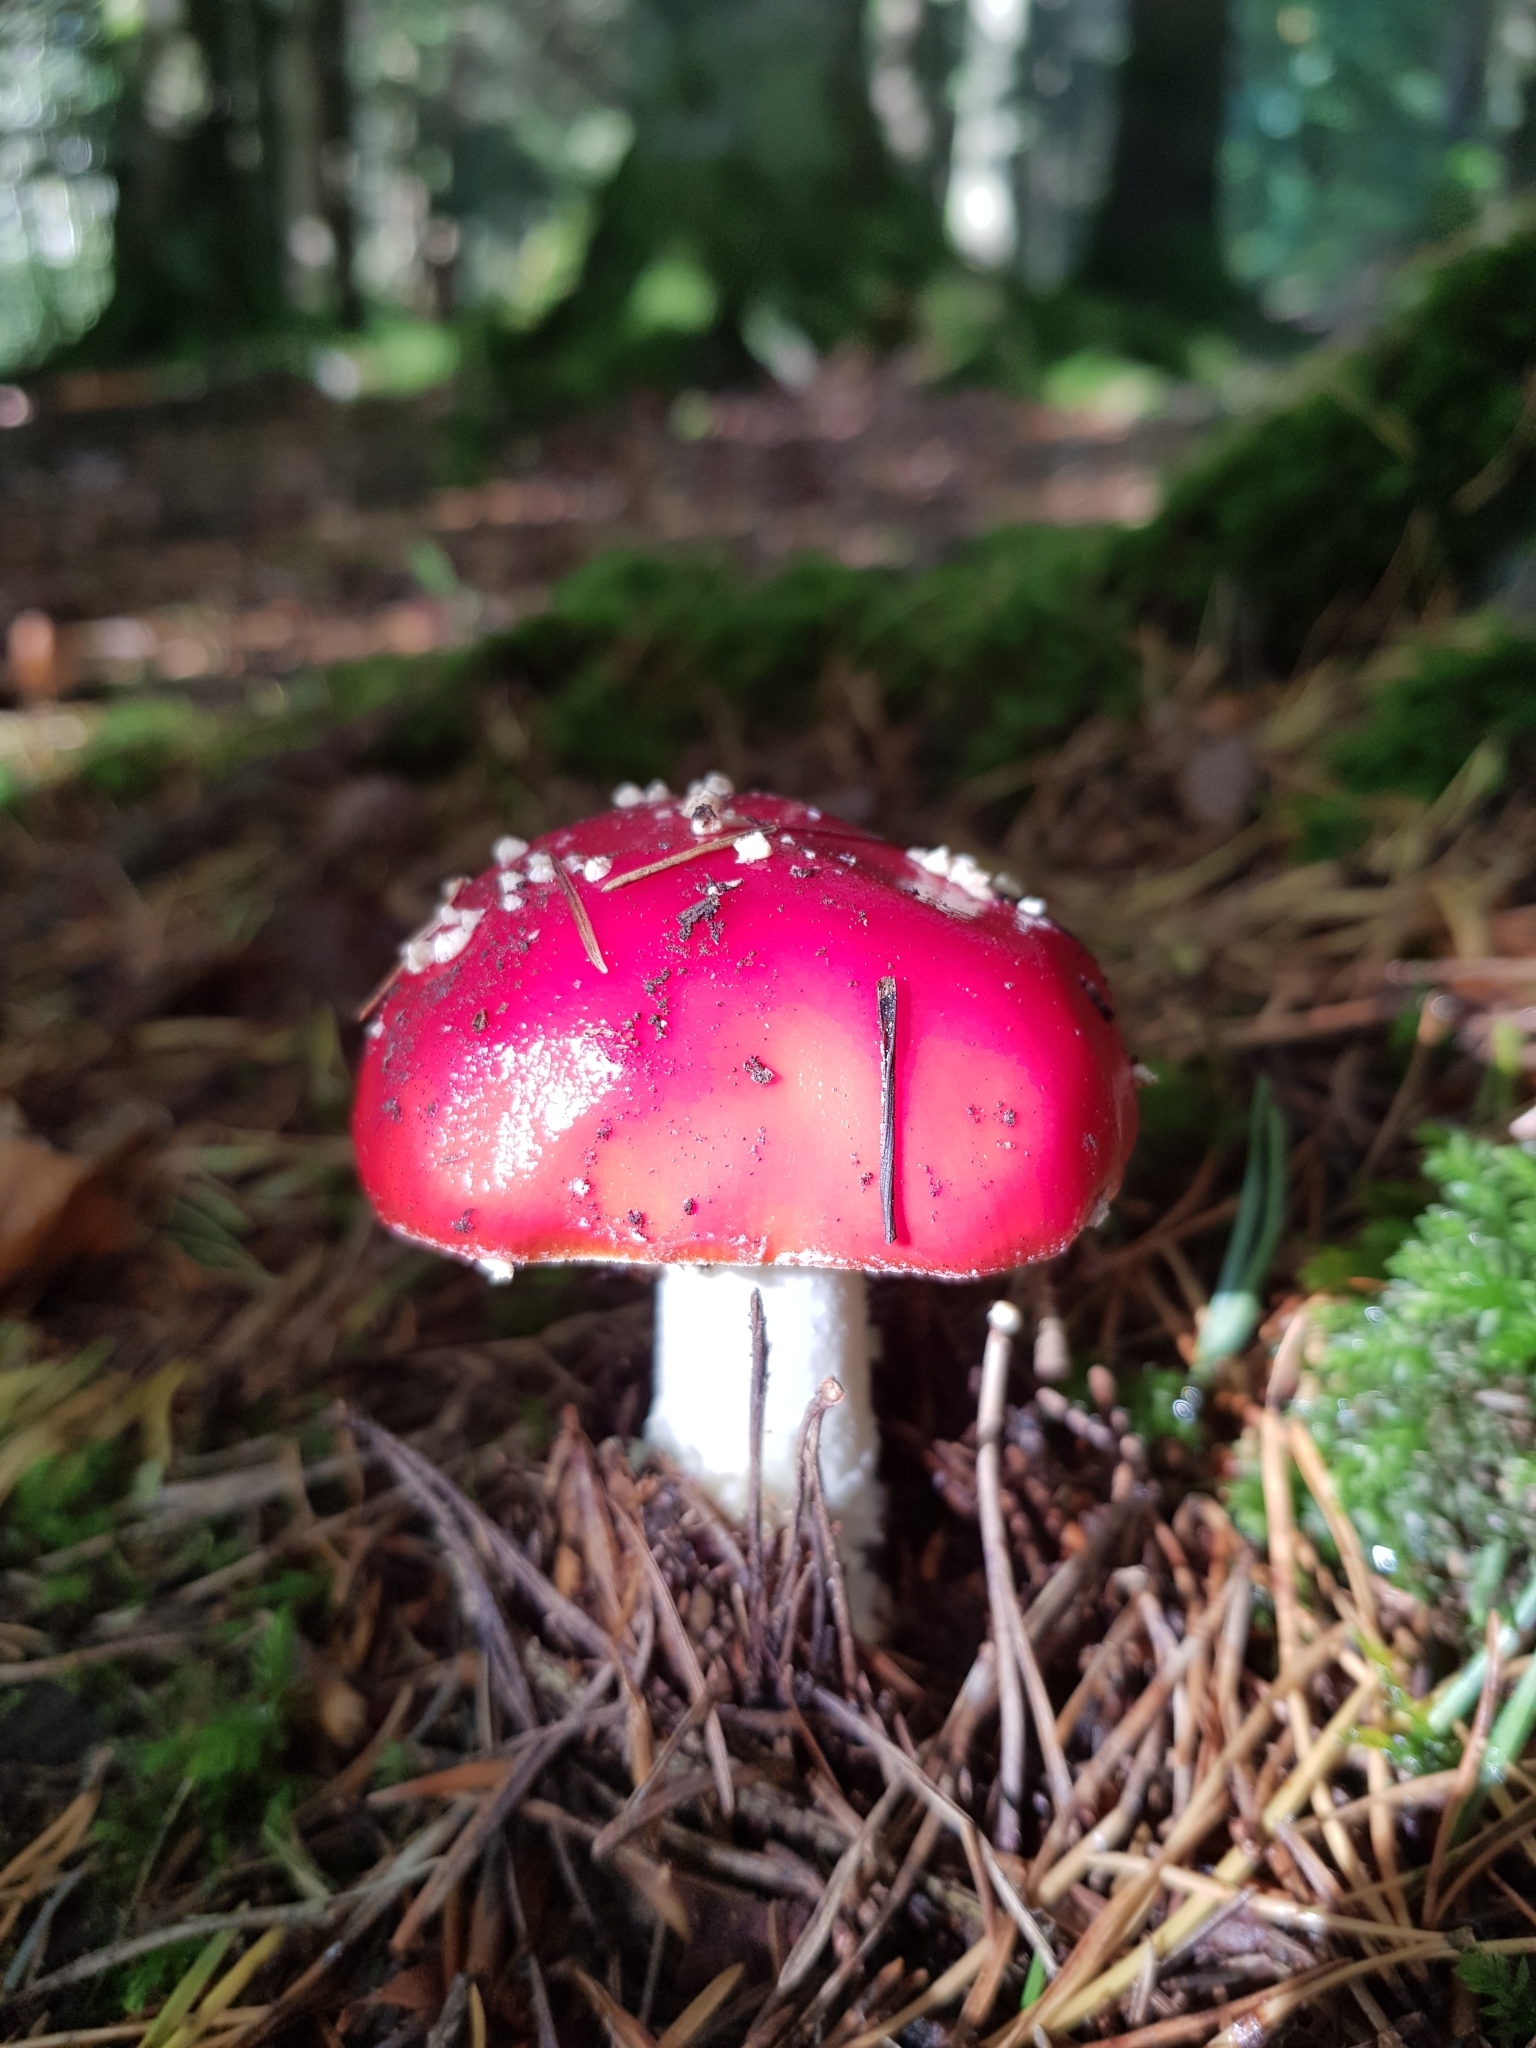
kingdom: Fungi
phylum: Basidiomycota
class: Agaricomycetes
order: Agaricales
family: Amanitaceae
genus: Amanita
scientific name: Amanita muscaria
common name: Fly agaric
